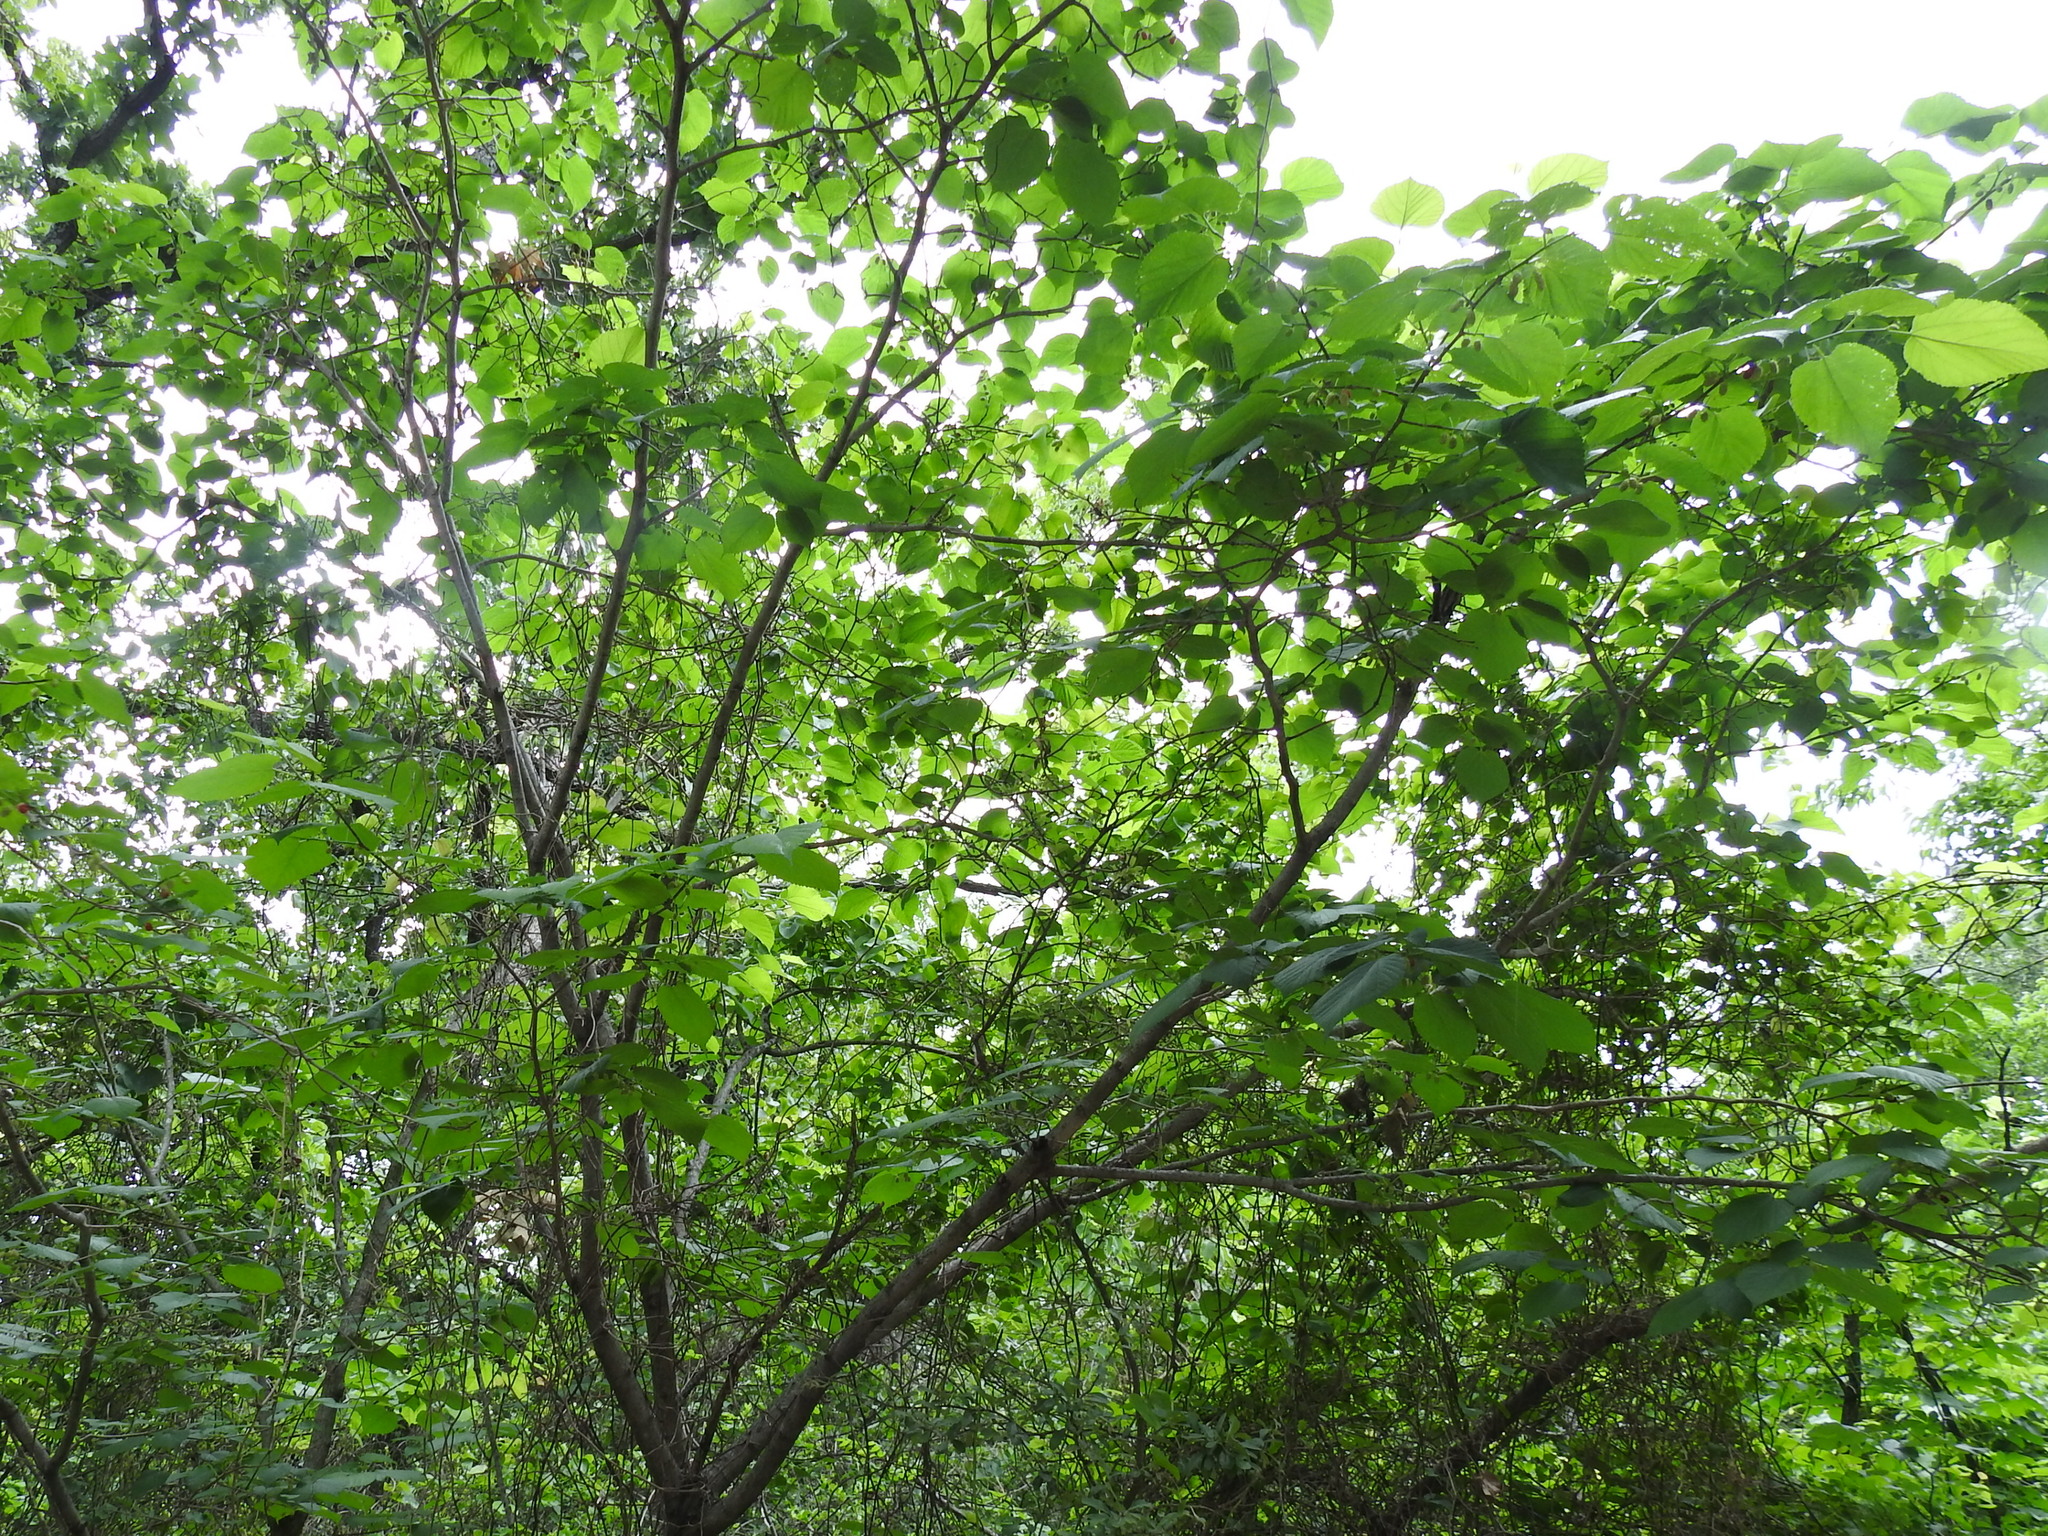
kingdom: Plantae
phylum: Tracheophyta
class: Magnoliopsida
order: Rosales
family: Moraceae
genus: Morus
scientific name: Morus rubra
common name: Red mulberry
